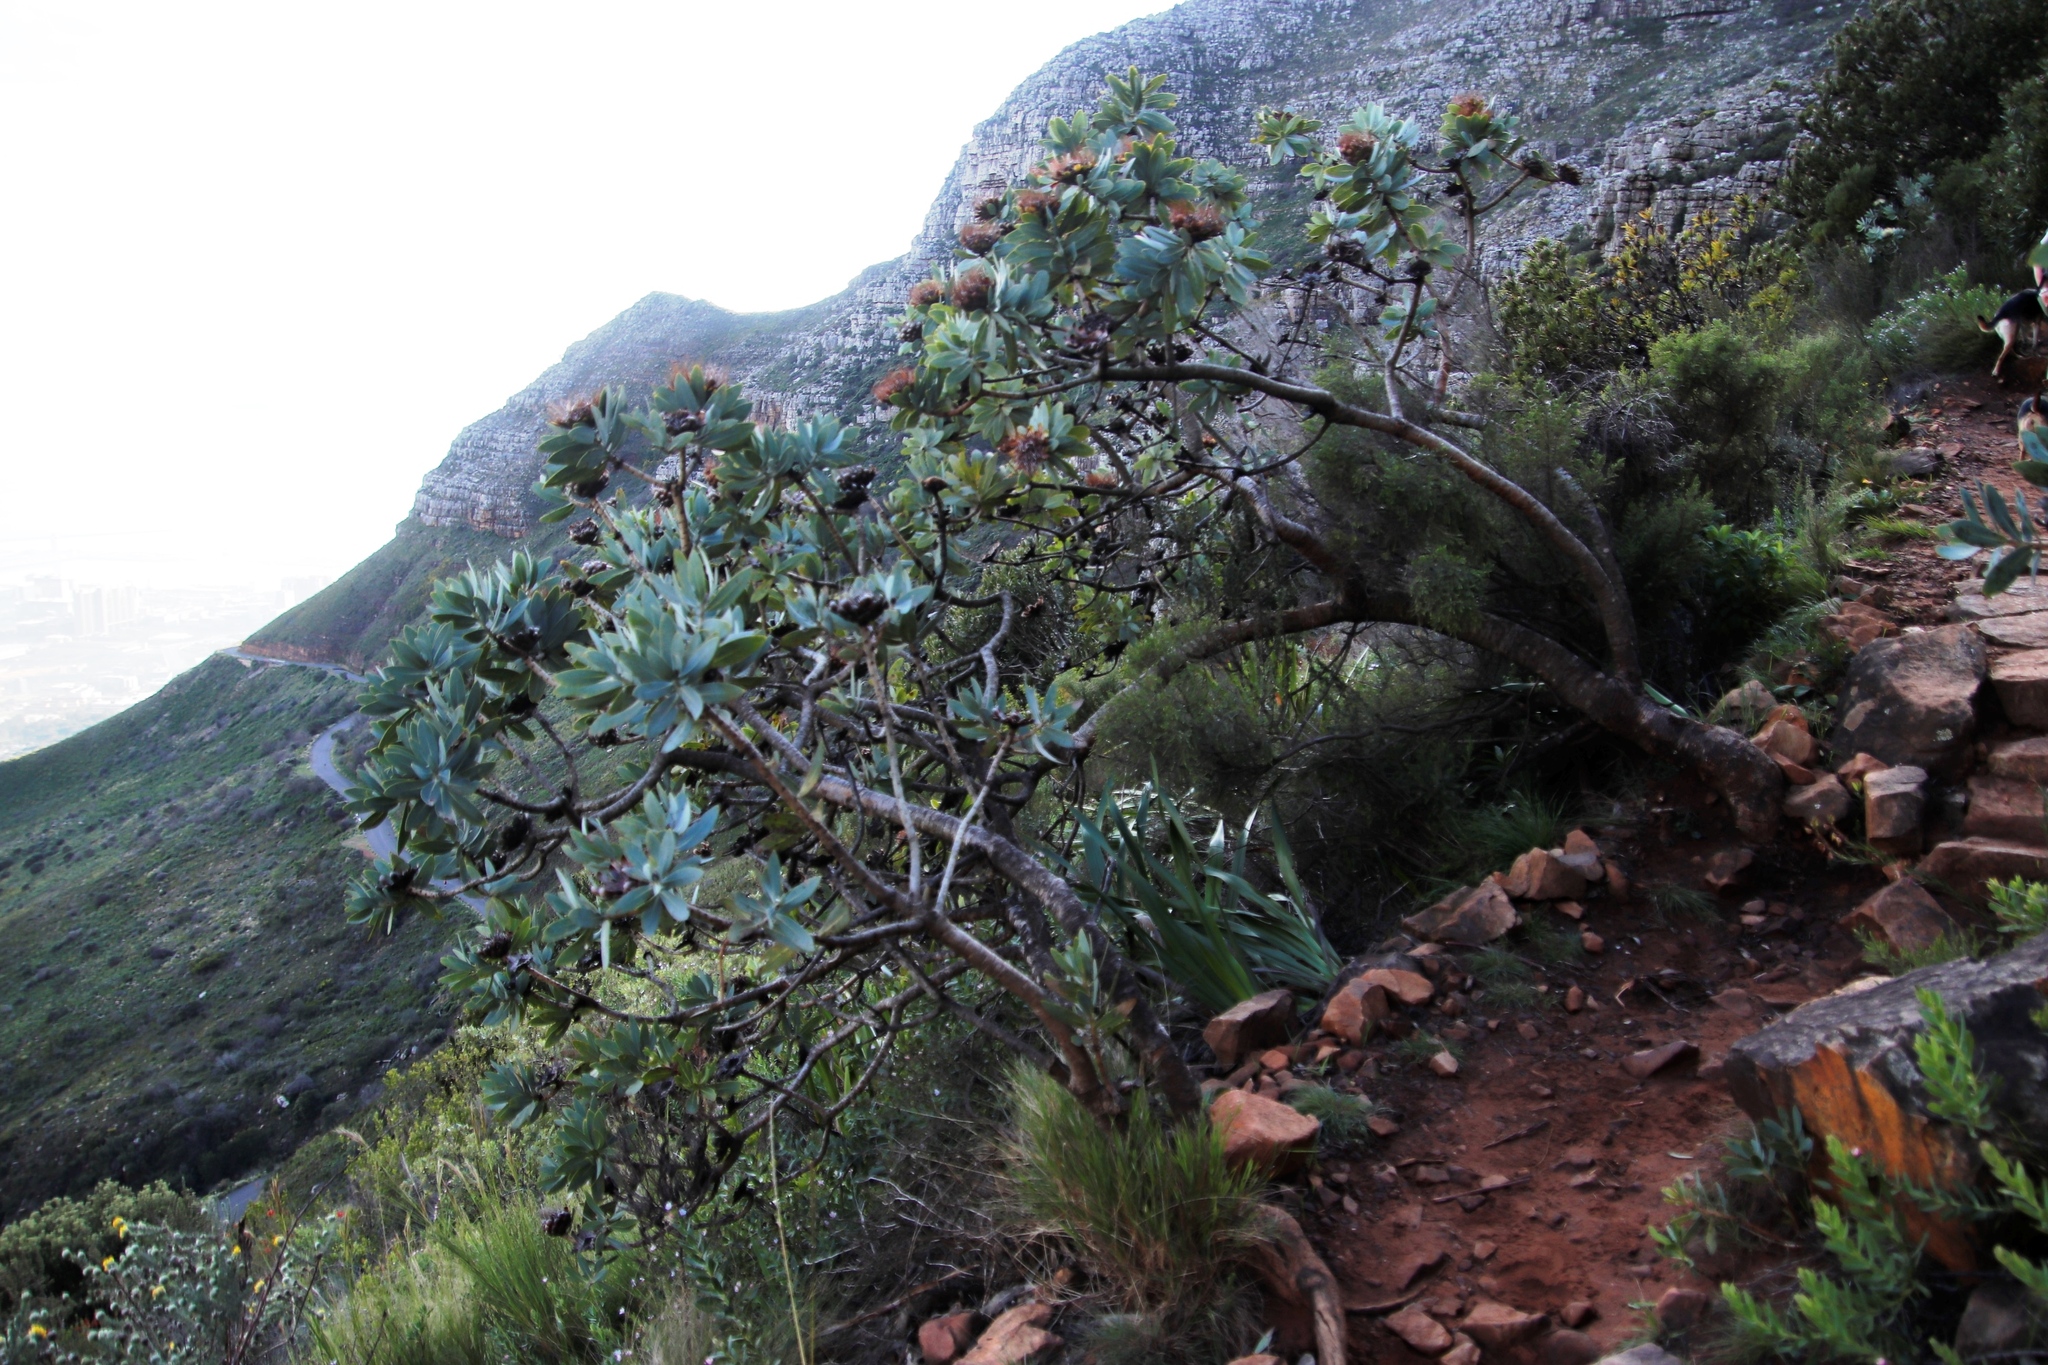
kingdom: Plantae
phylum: Tracheophyta
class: Magnoliopsida
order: Proteales
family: Proteaceae
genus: Protea
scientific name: Protea nitida
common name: Tree protea
